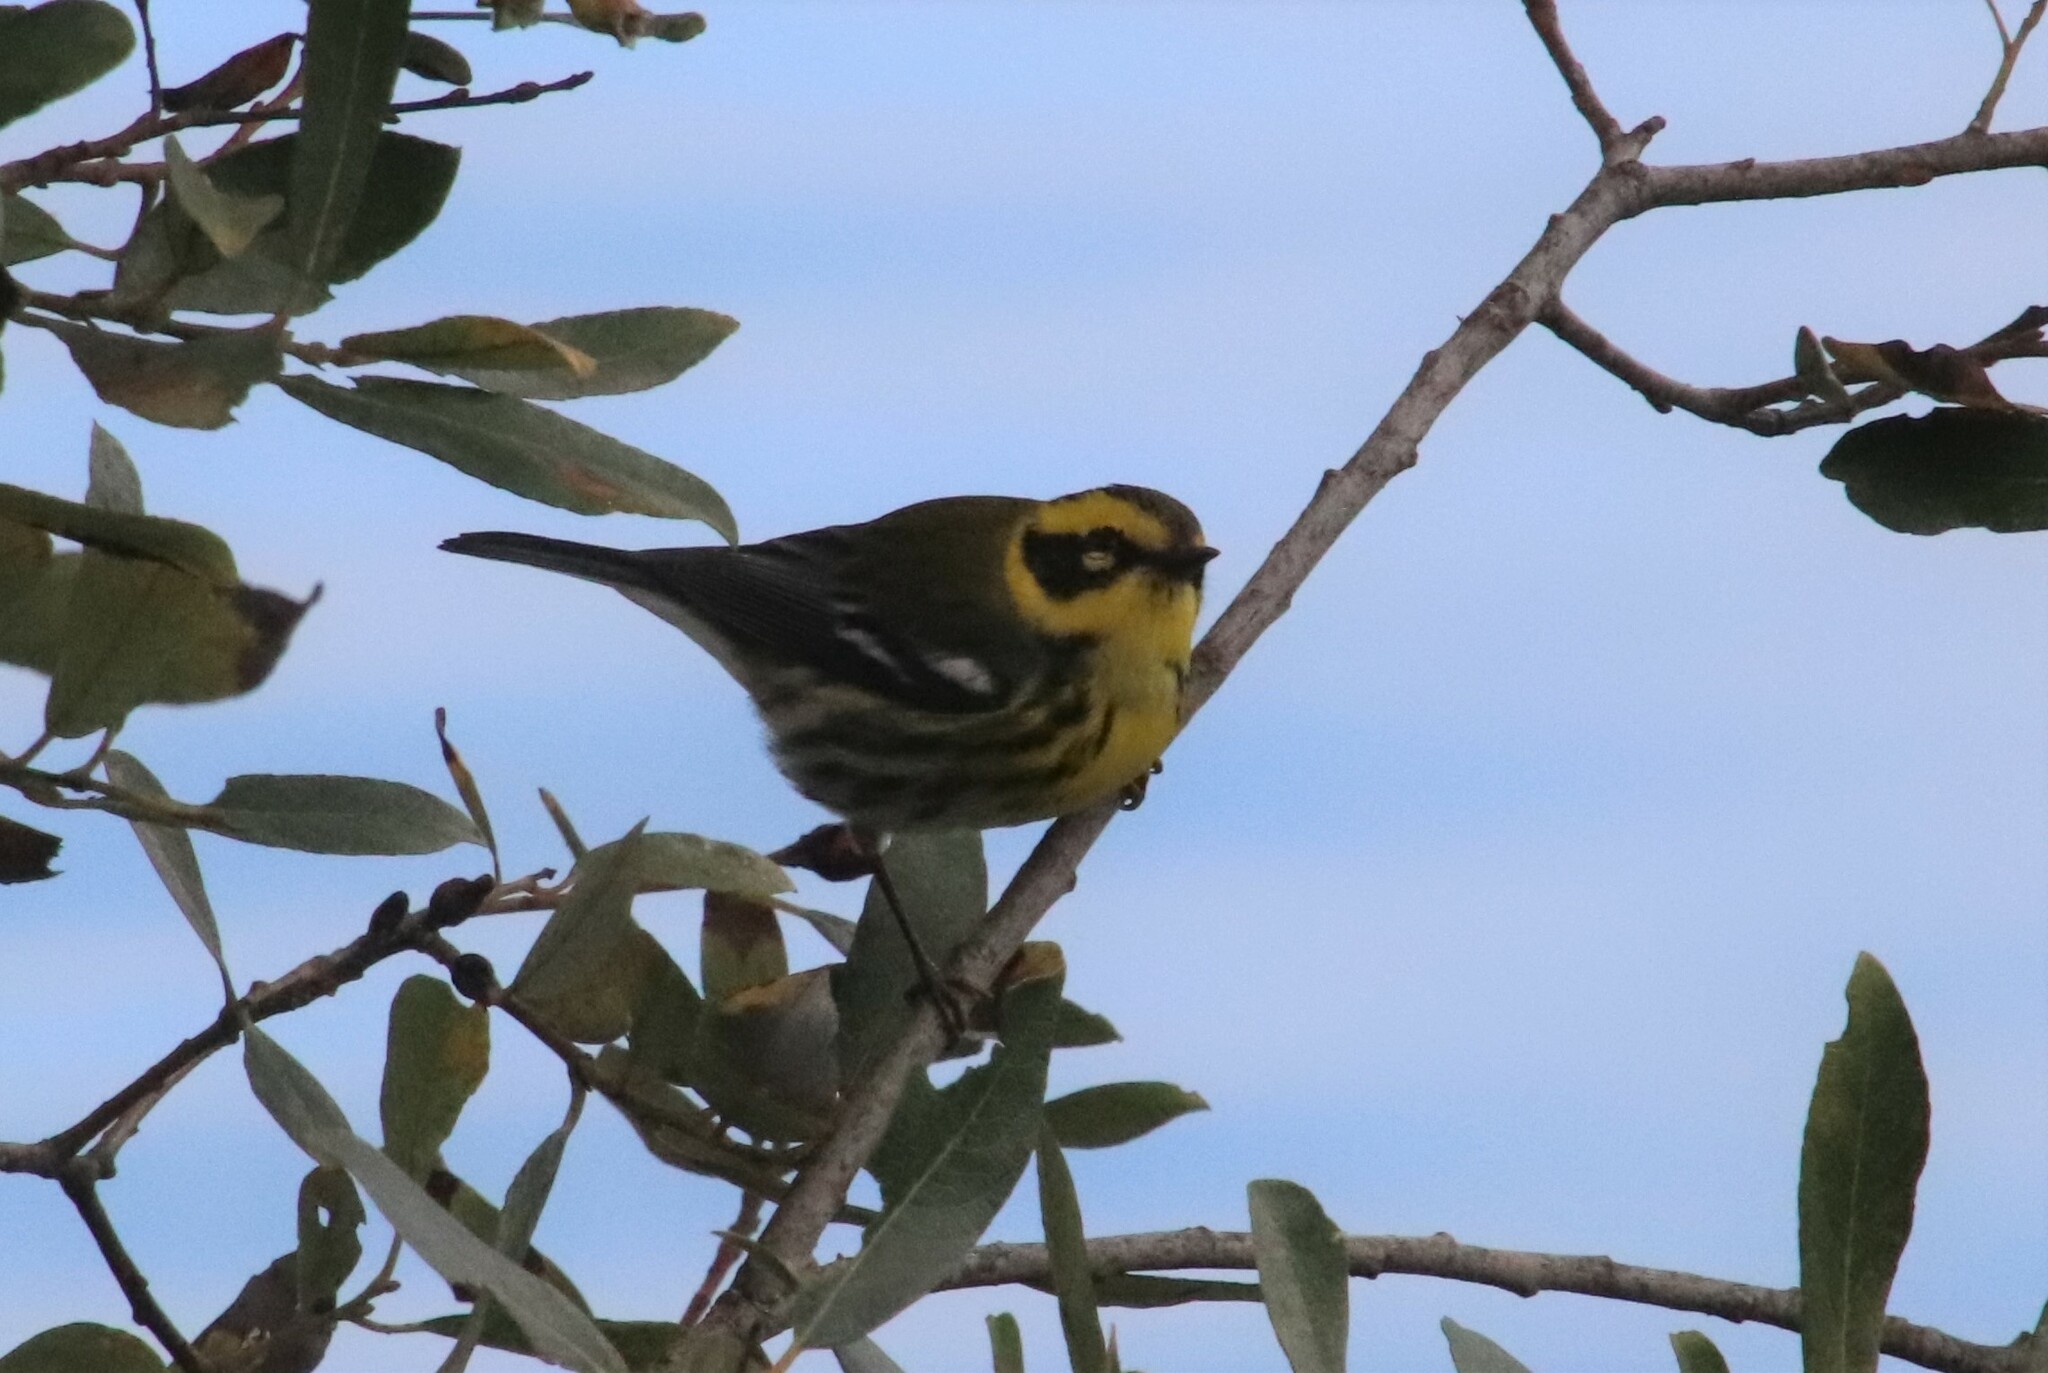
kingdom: Animalia
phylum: Chordata
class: Aves
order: Passeriformes
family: Parulidae
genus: Setophaga
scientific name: Setophaga townsendi
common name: Townsend's warbler
